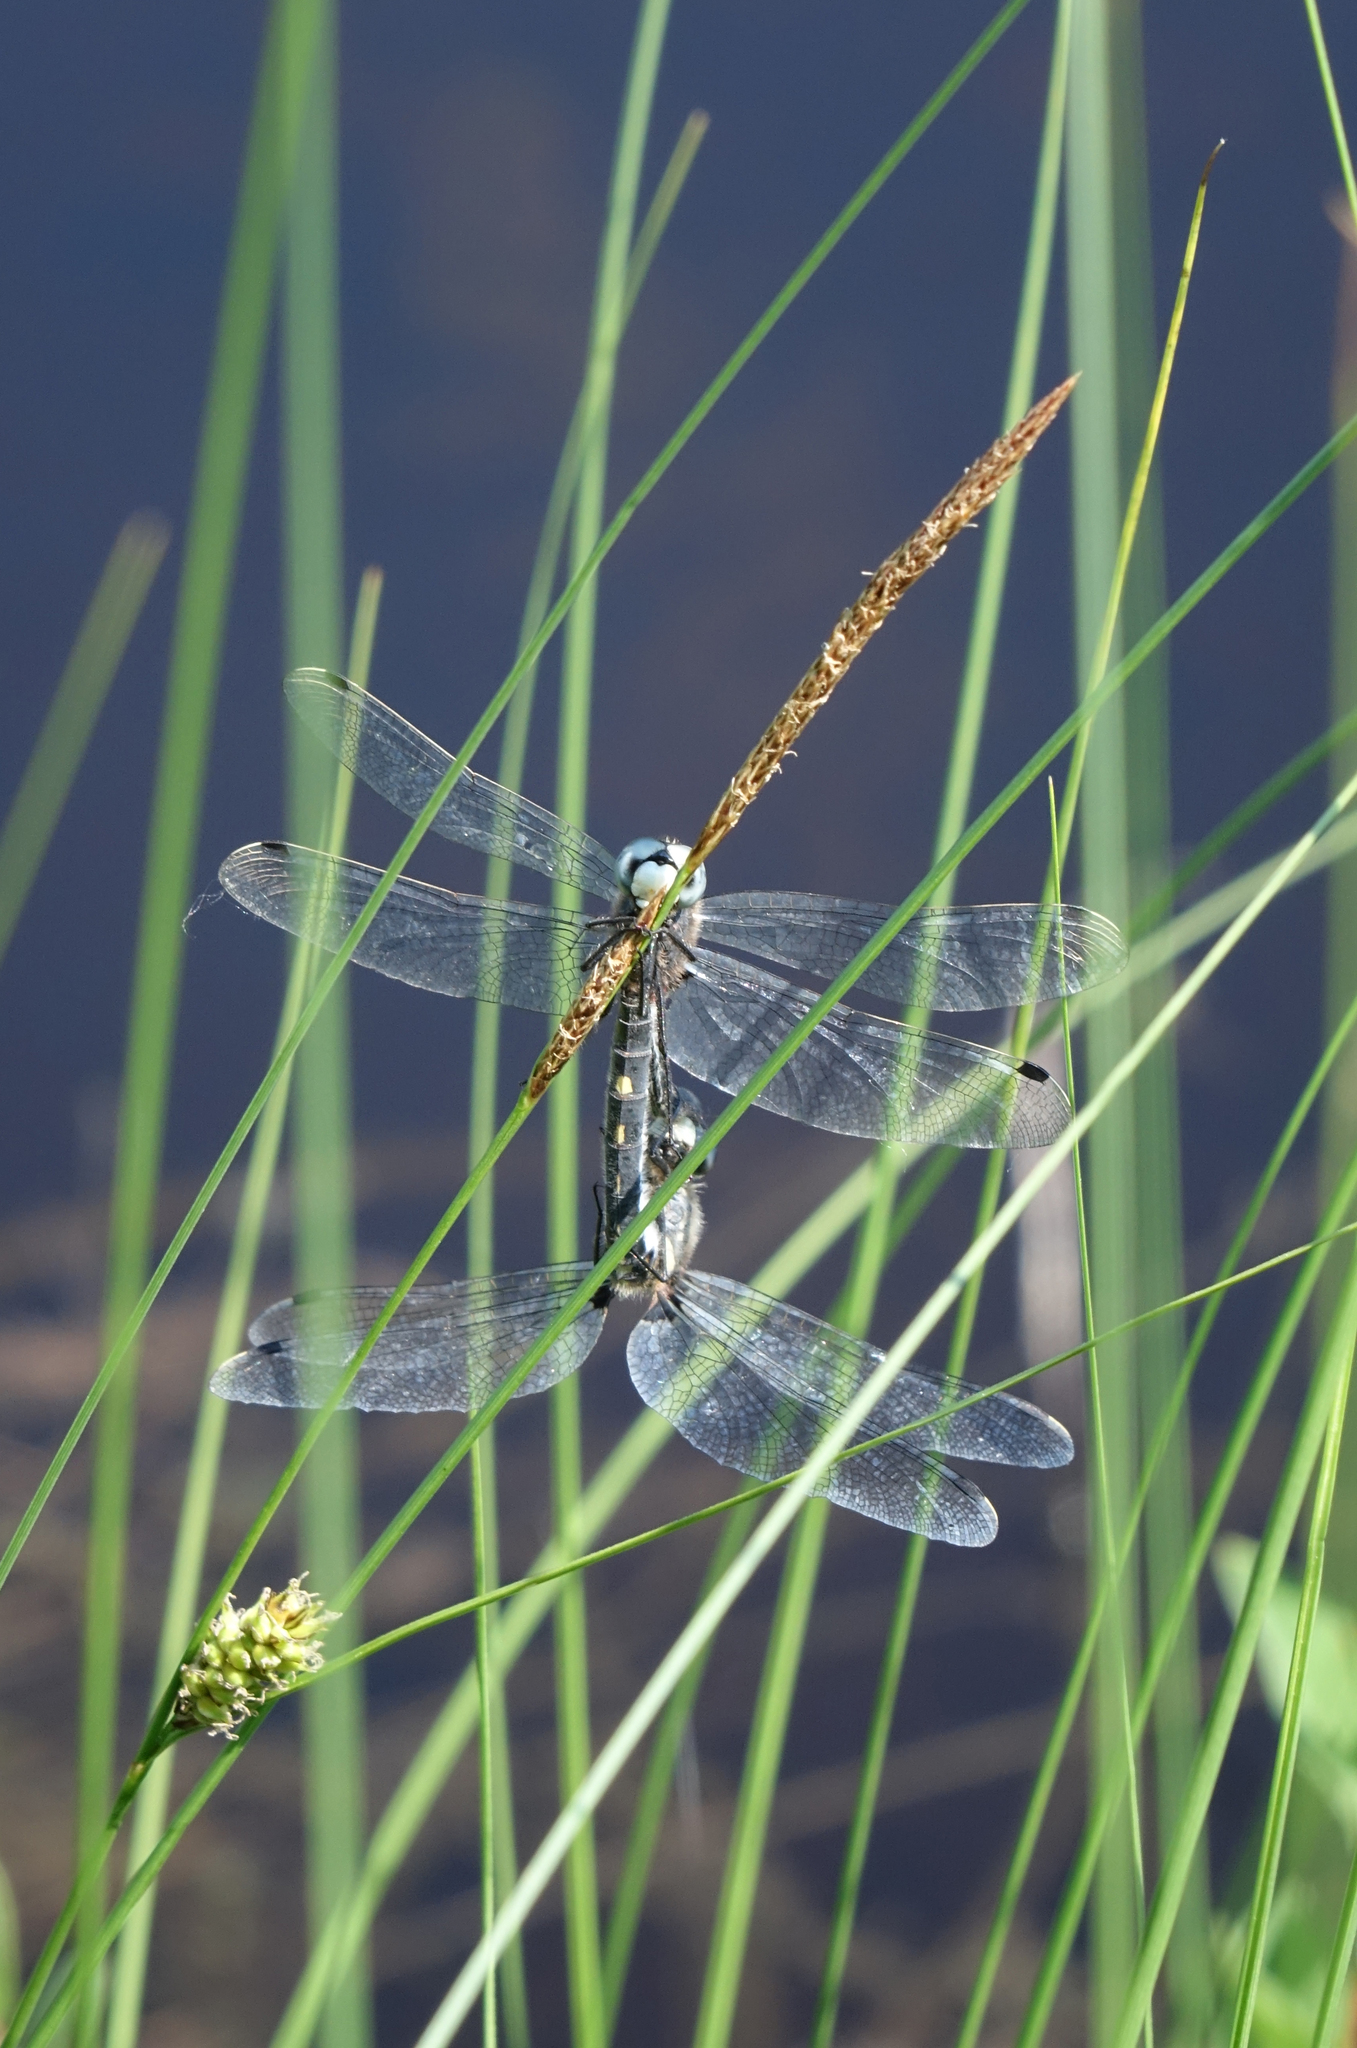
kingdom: Plantae
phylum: Tracheophyta
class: Liliopsida
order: Poales
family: Cyperaceae
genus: Carex
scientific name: Carex lasiocarpa
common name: Slender sedge
